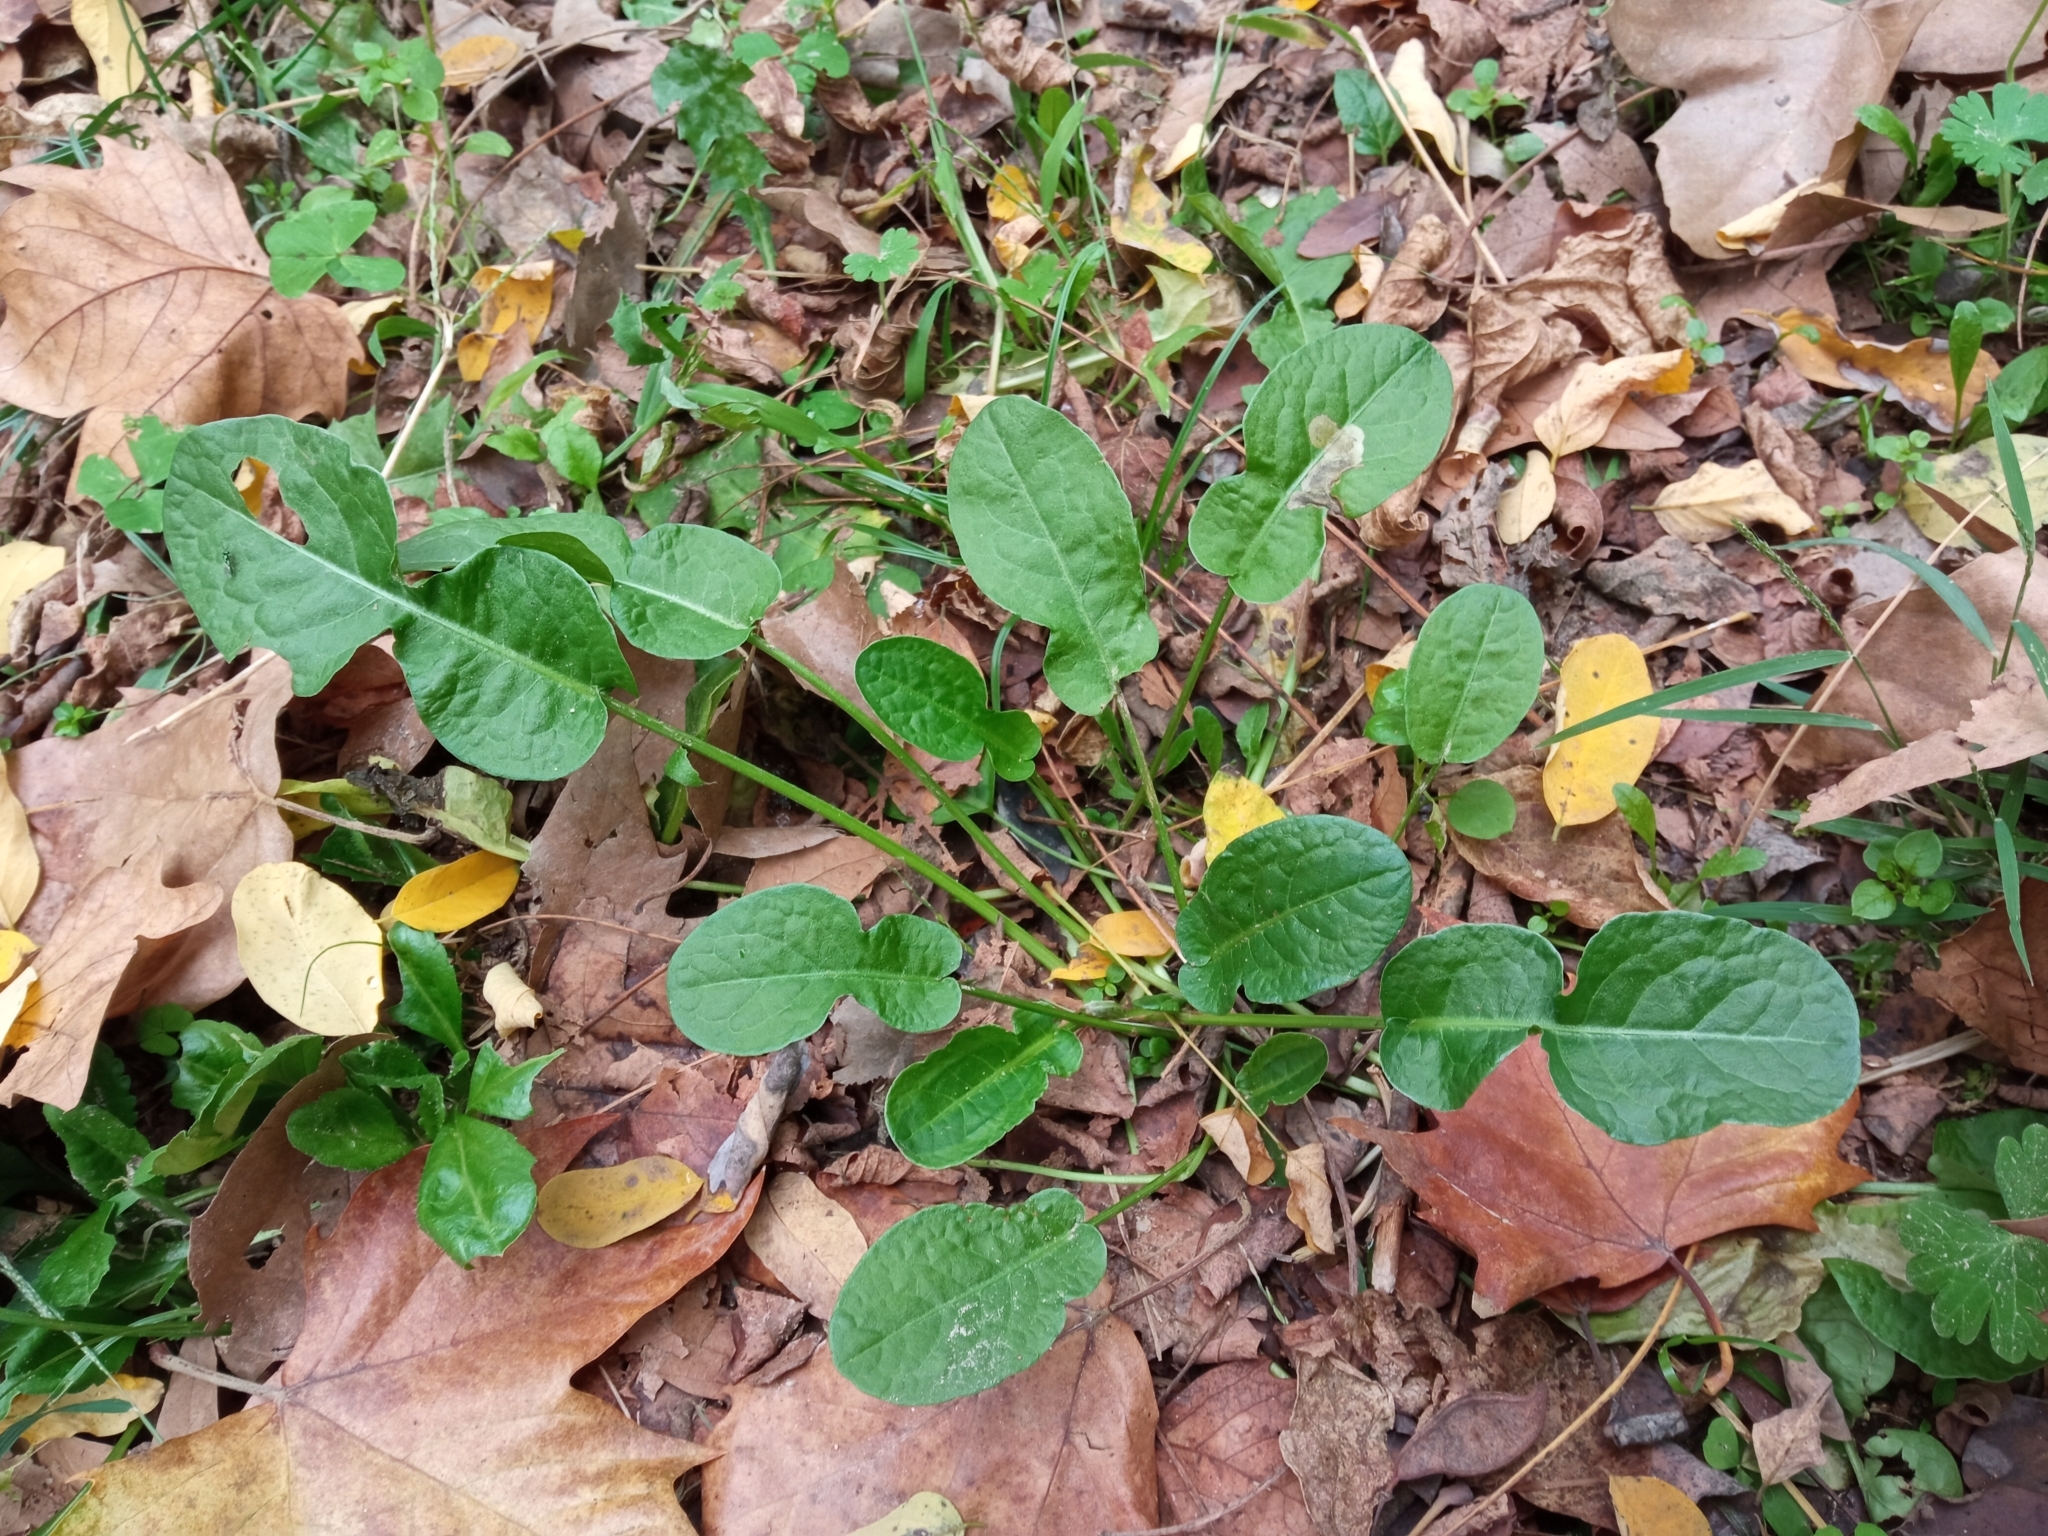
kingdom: Plantae
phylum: Tracheophyta
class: Magnoliopsida
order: Caryophyllales
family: Polygonaceae
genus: Rumex
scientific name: Rumex pulcher
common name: Fiddle dock
